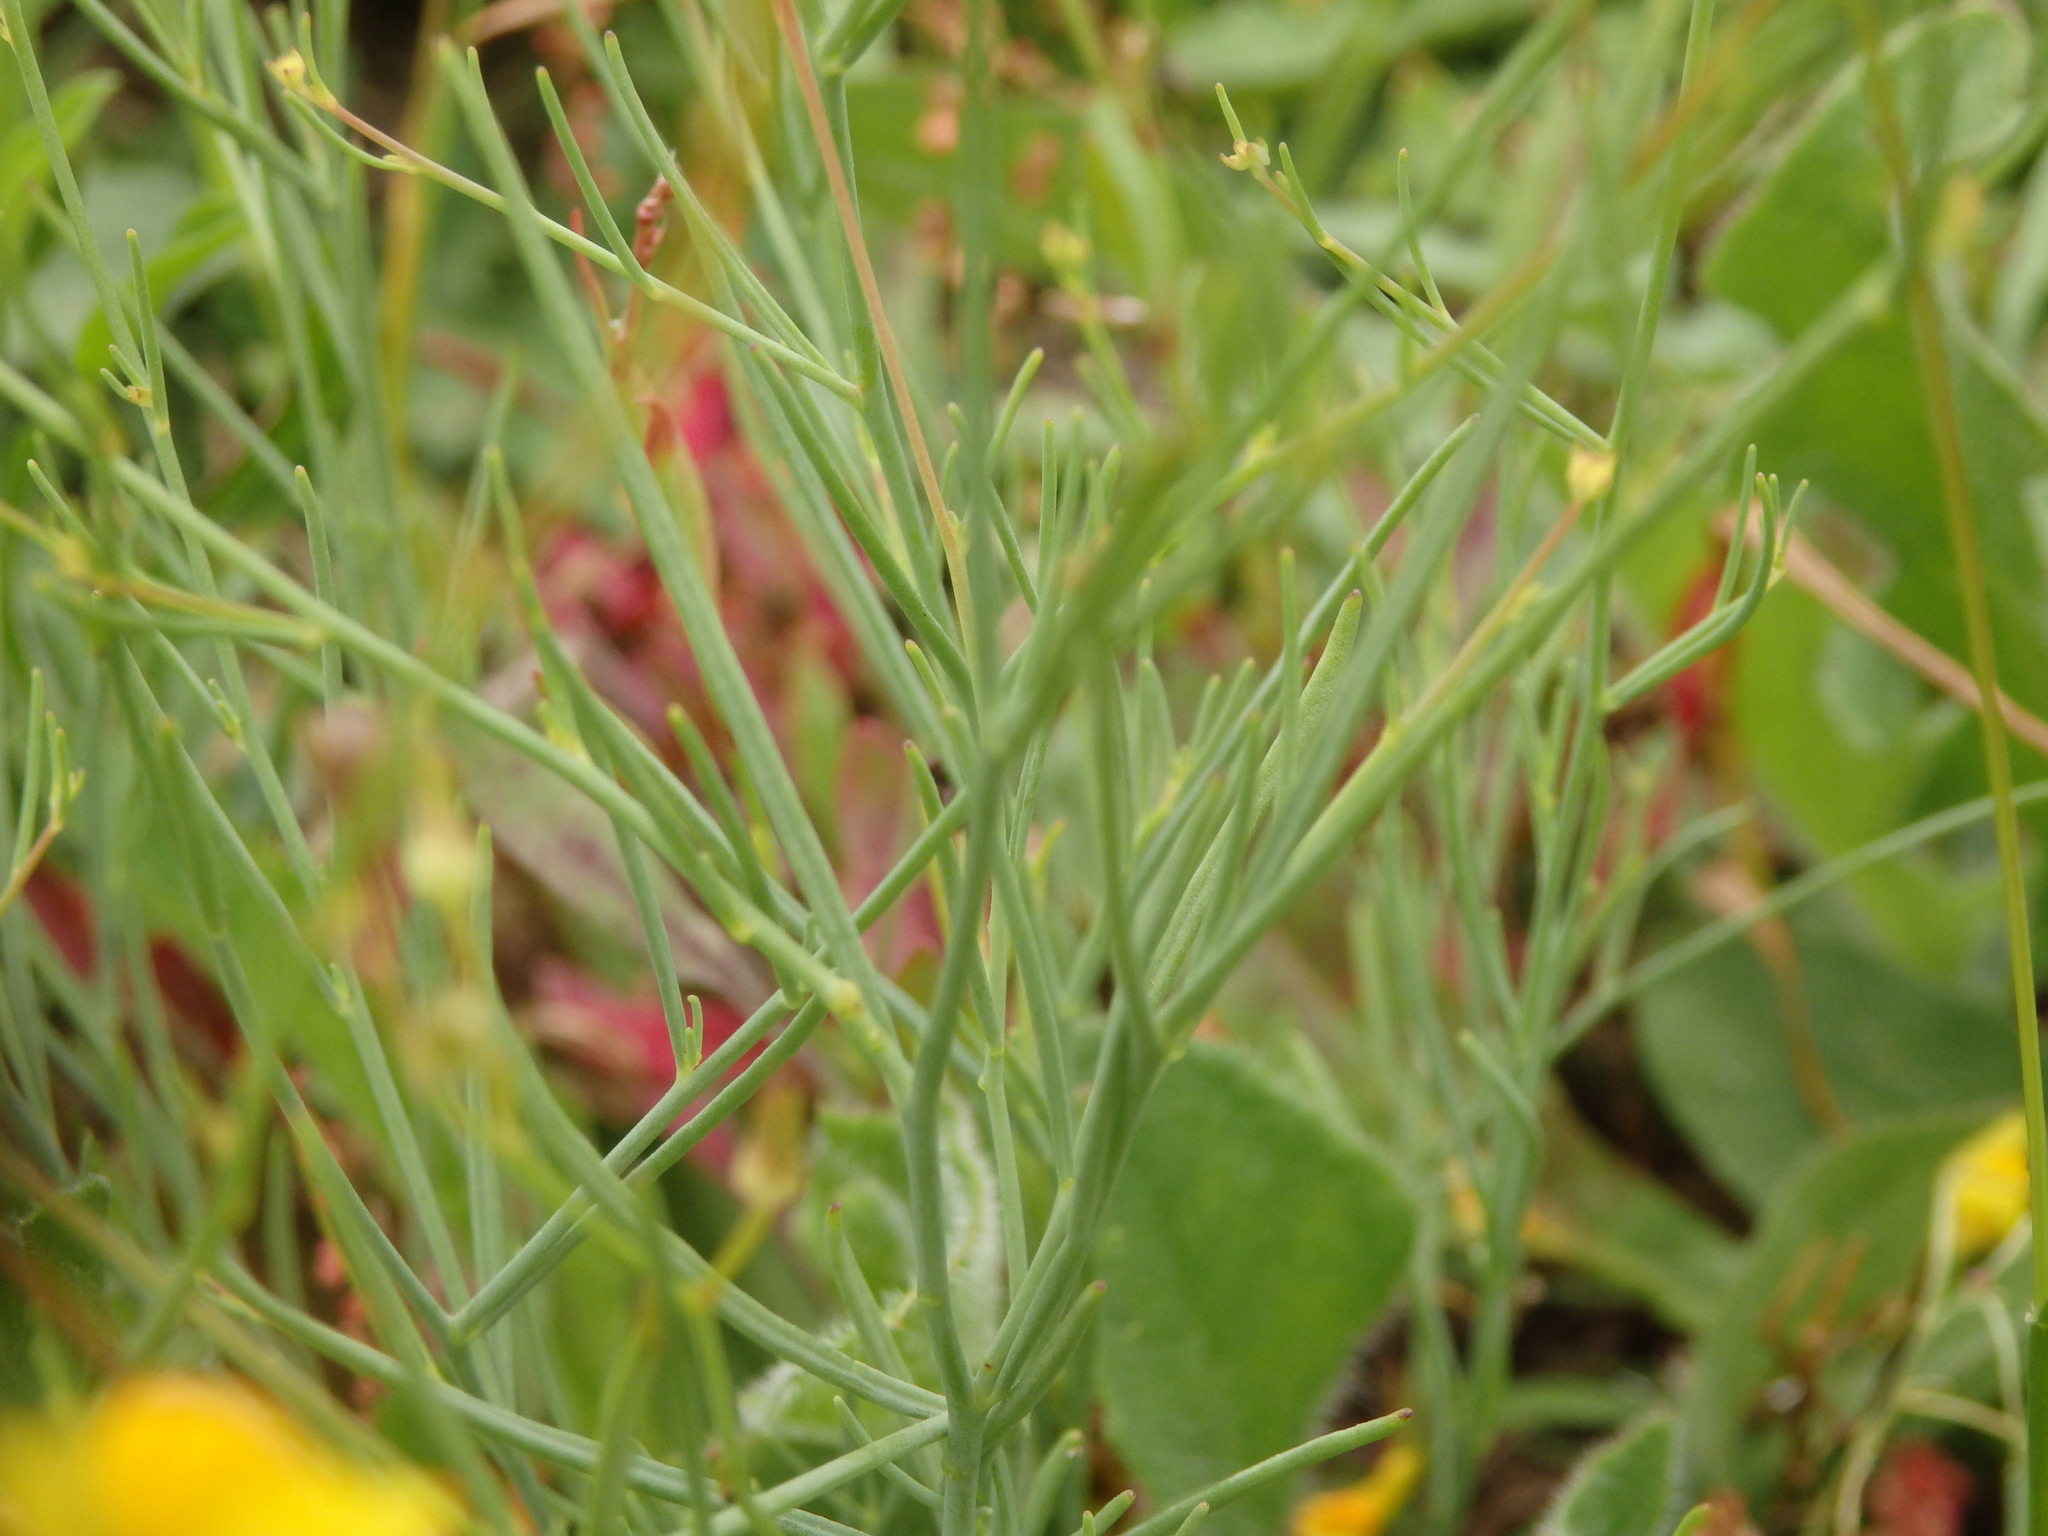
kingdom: Plantae
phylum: Tracheophyta
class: Magnoliopsida
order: Lamiales
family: Plantaginaceae
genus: Linaria
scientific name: Linaria spartea
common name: Ballast toadflax
